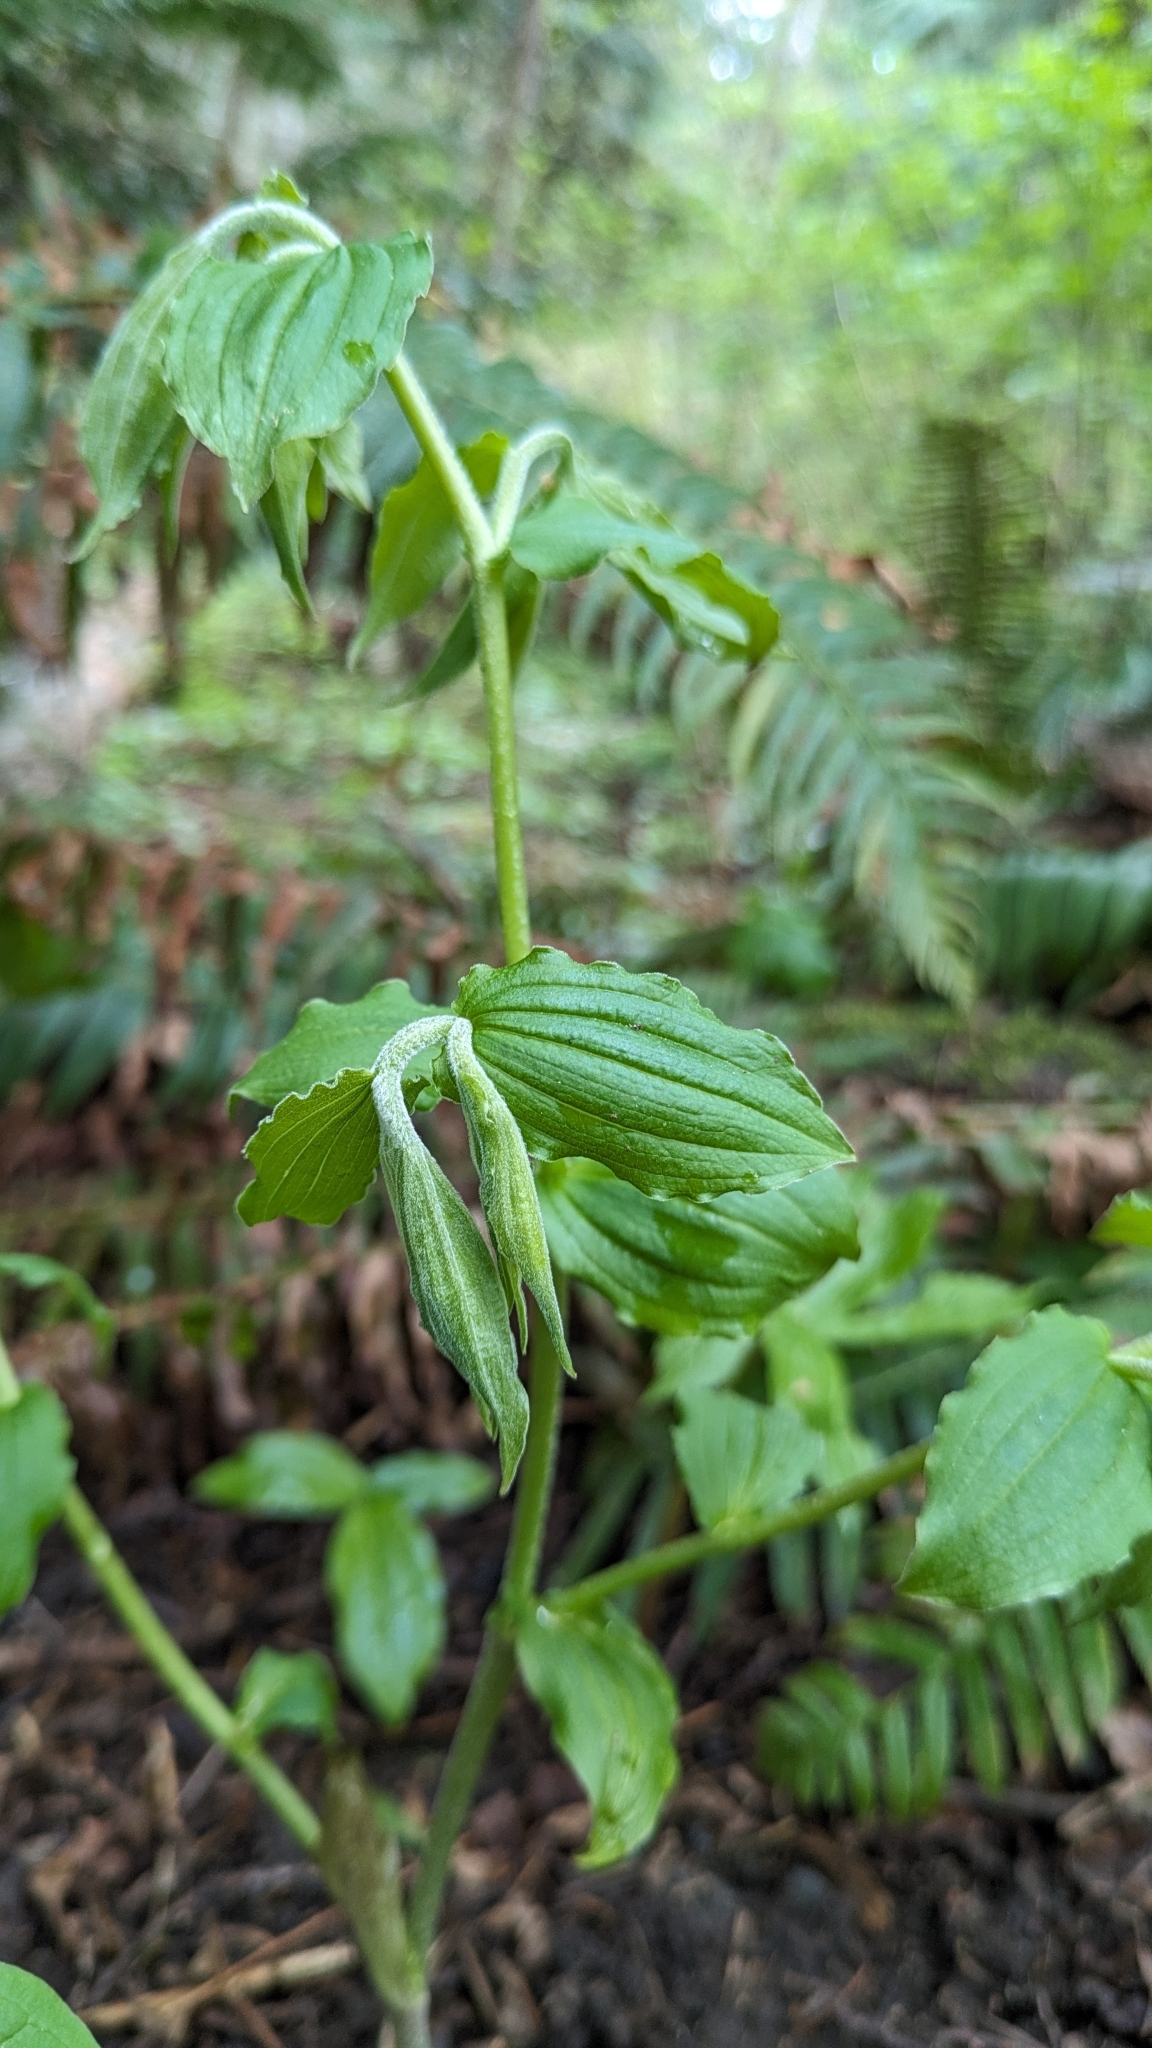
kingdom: Plantae
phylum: Tracheophyta
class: Liliopsida
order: Liliales
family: Liliaceae
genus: Prosartes
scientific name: Prosartes hookeri
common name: Fairy-bells
